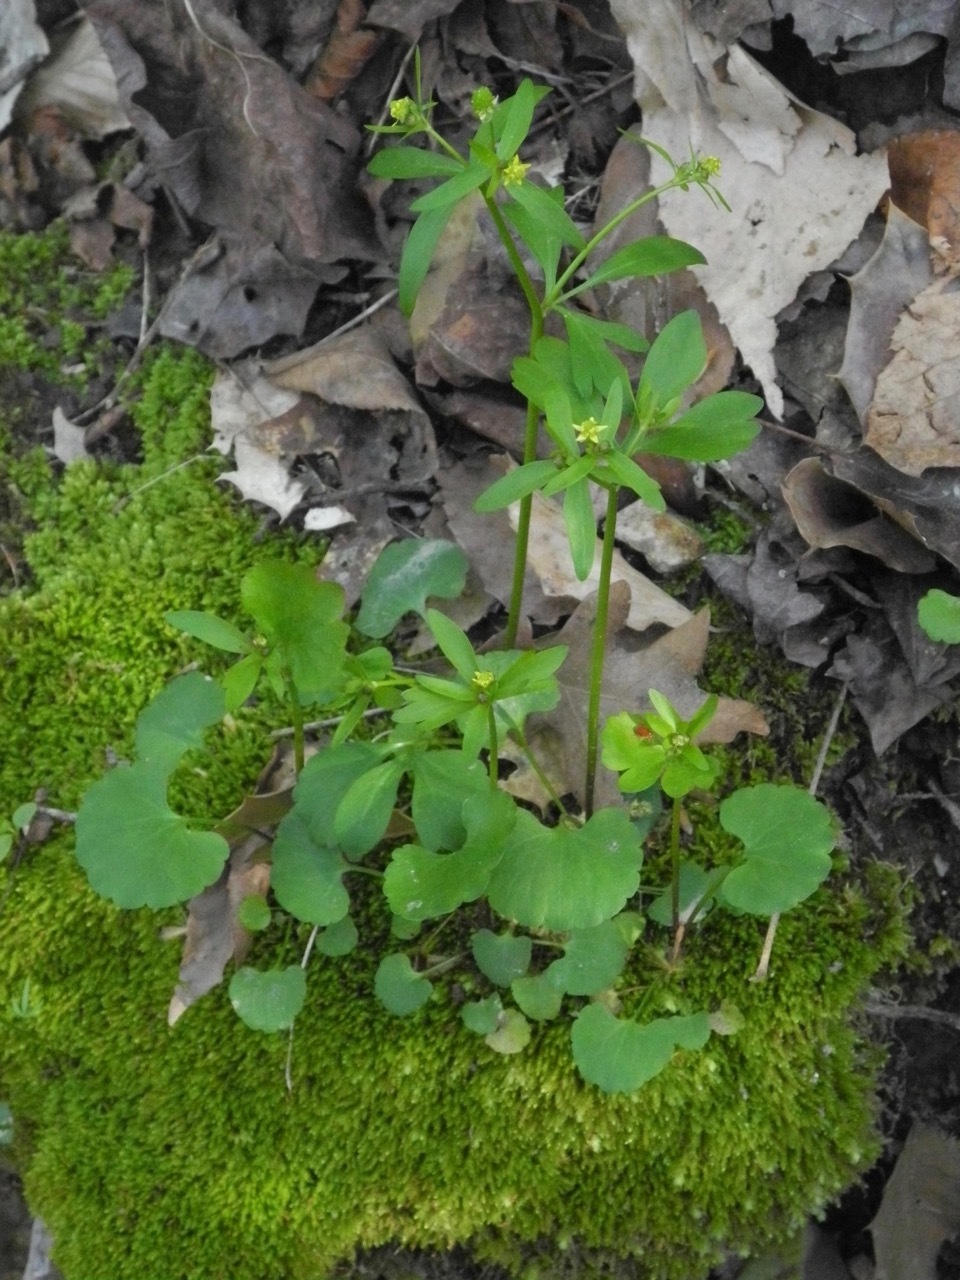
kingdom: Plantae
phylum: Tracheophyta
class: Magnoliopsida
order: Ranunculales
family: Ranunculaceae
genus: Ranunculus
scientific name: Ranunculus abortivus
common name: Early wood buttercup
